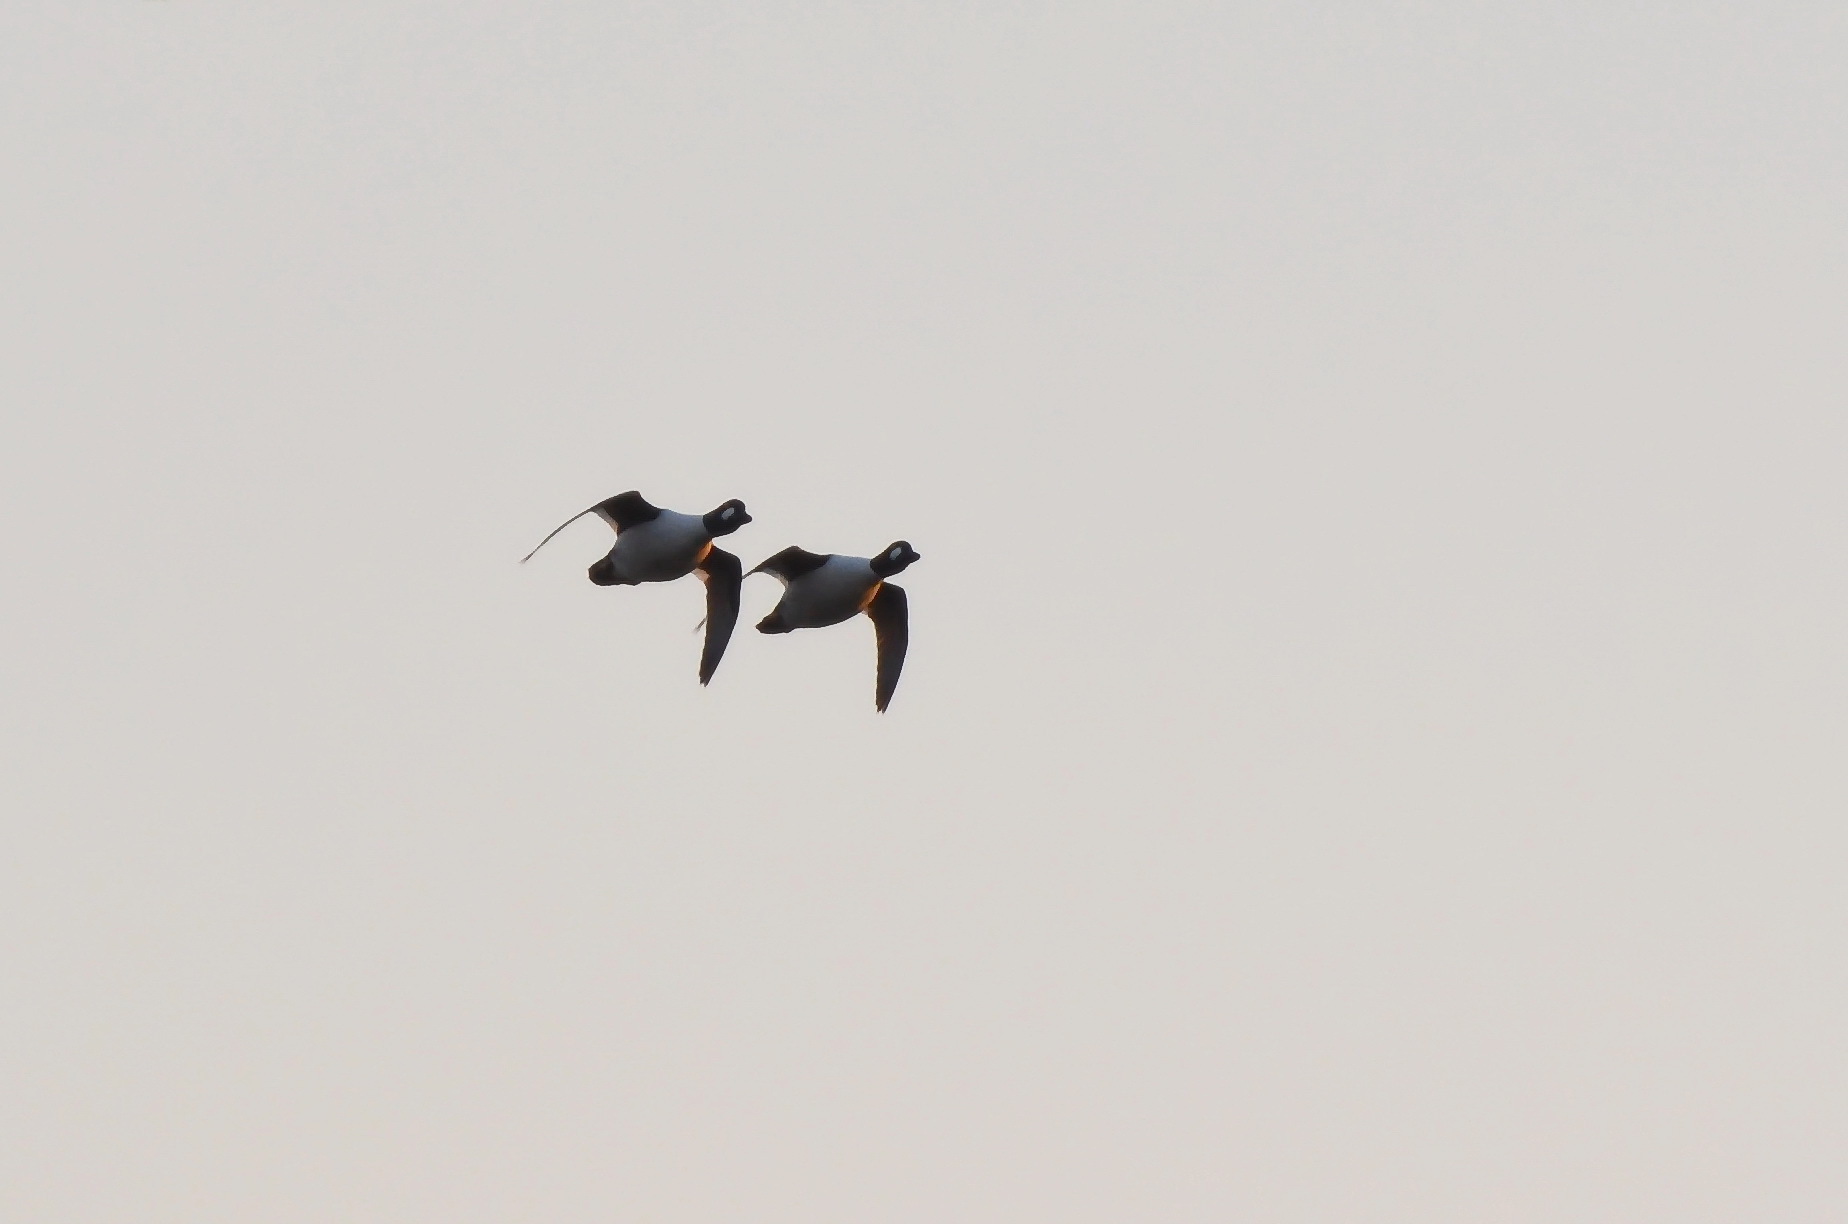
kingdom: Animalia
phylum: Chordata
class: Aves
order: Anseriformes
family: Anatidae
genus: Bucephala
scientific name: Bucephala clangula
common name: Common goldeneye
